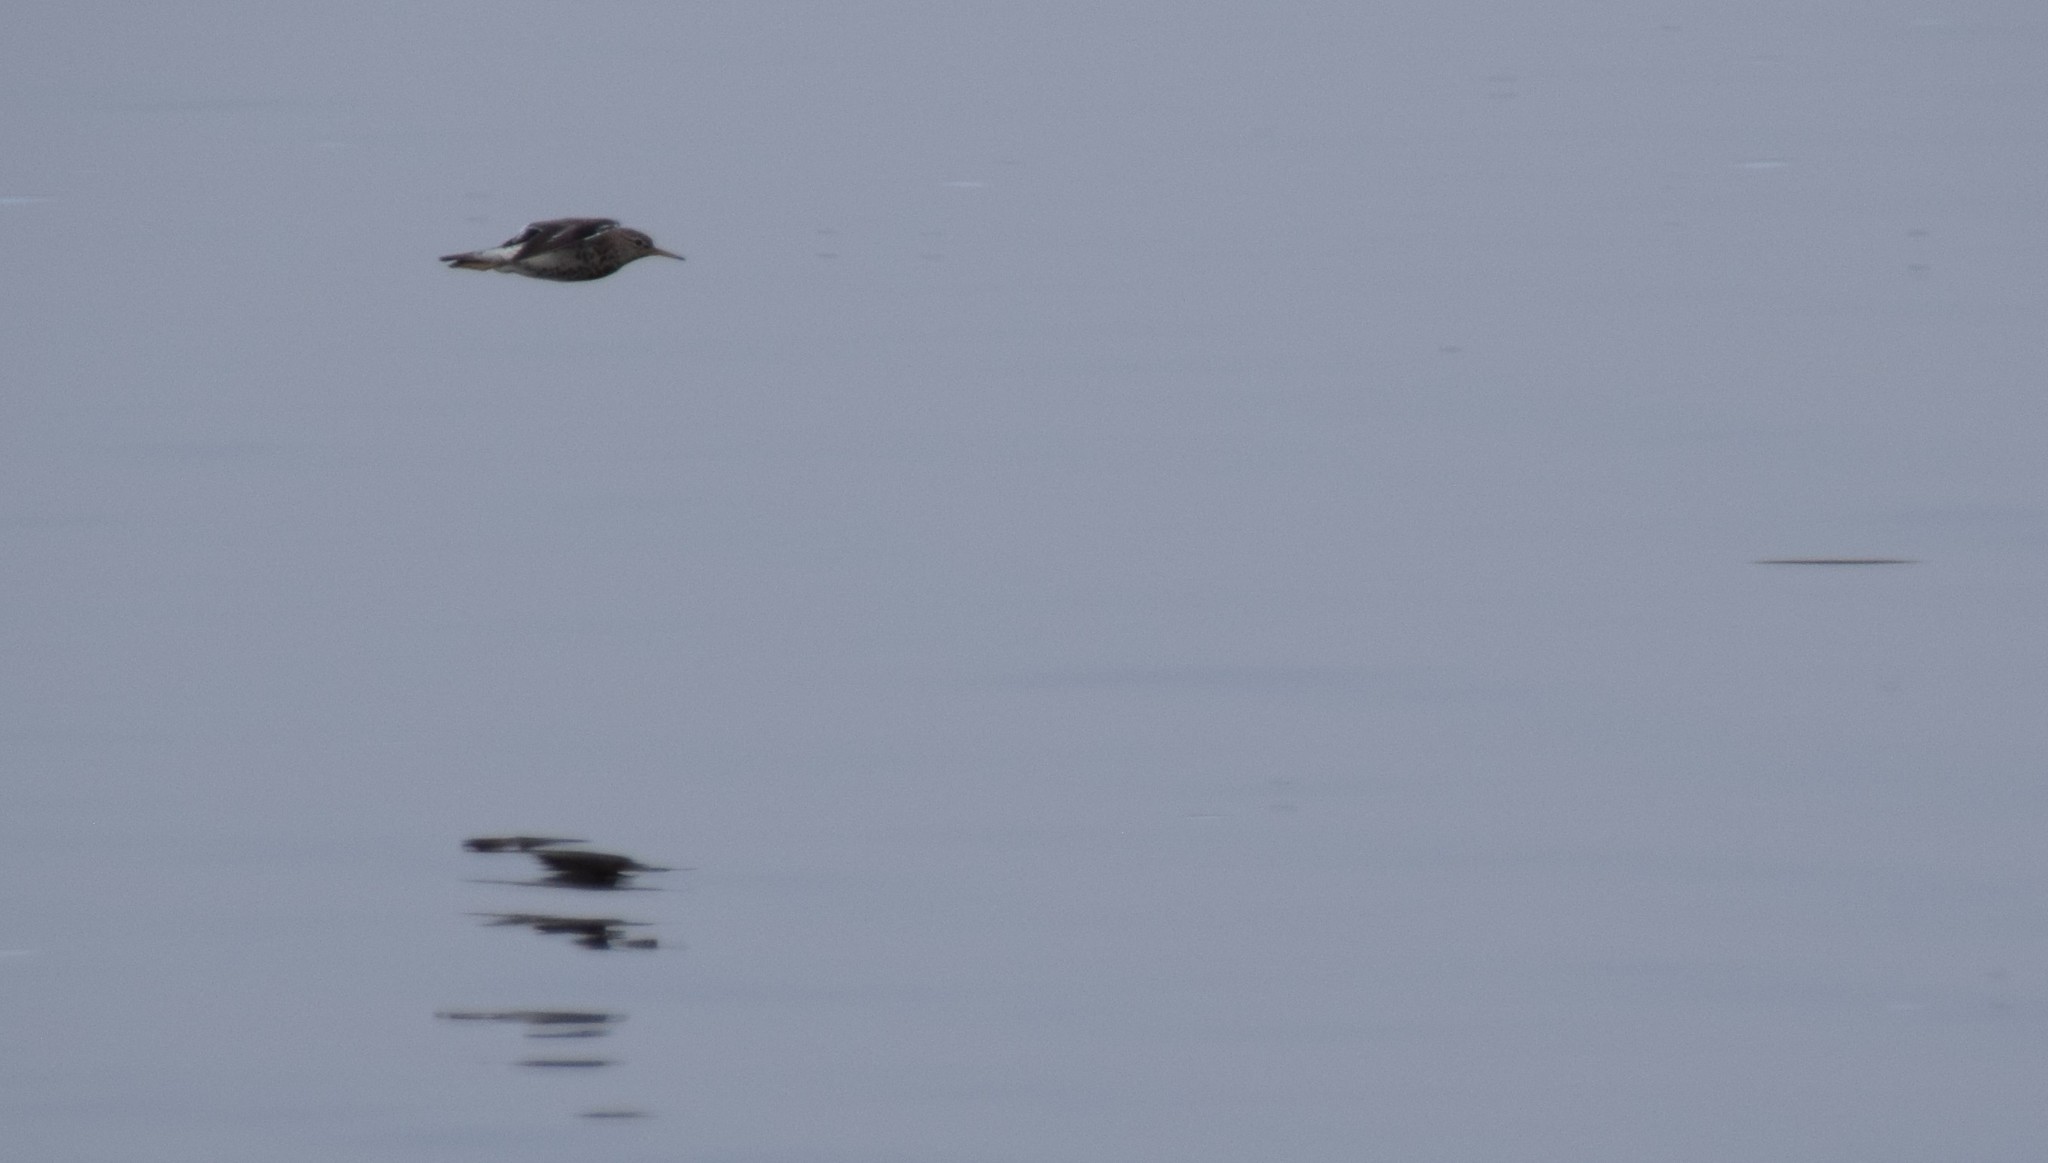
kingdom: Animalia
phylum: Chordata
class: Aves
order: Charadriiformes
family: Scolopacidae
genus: Actitis
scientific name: Actitis macularius
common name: Spotted sandpiper
